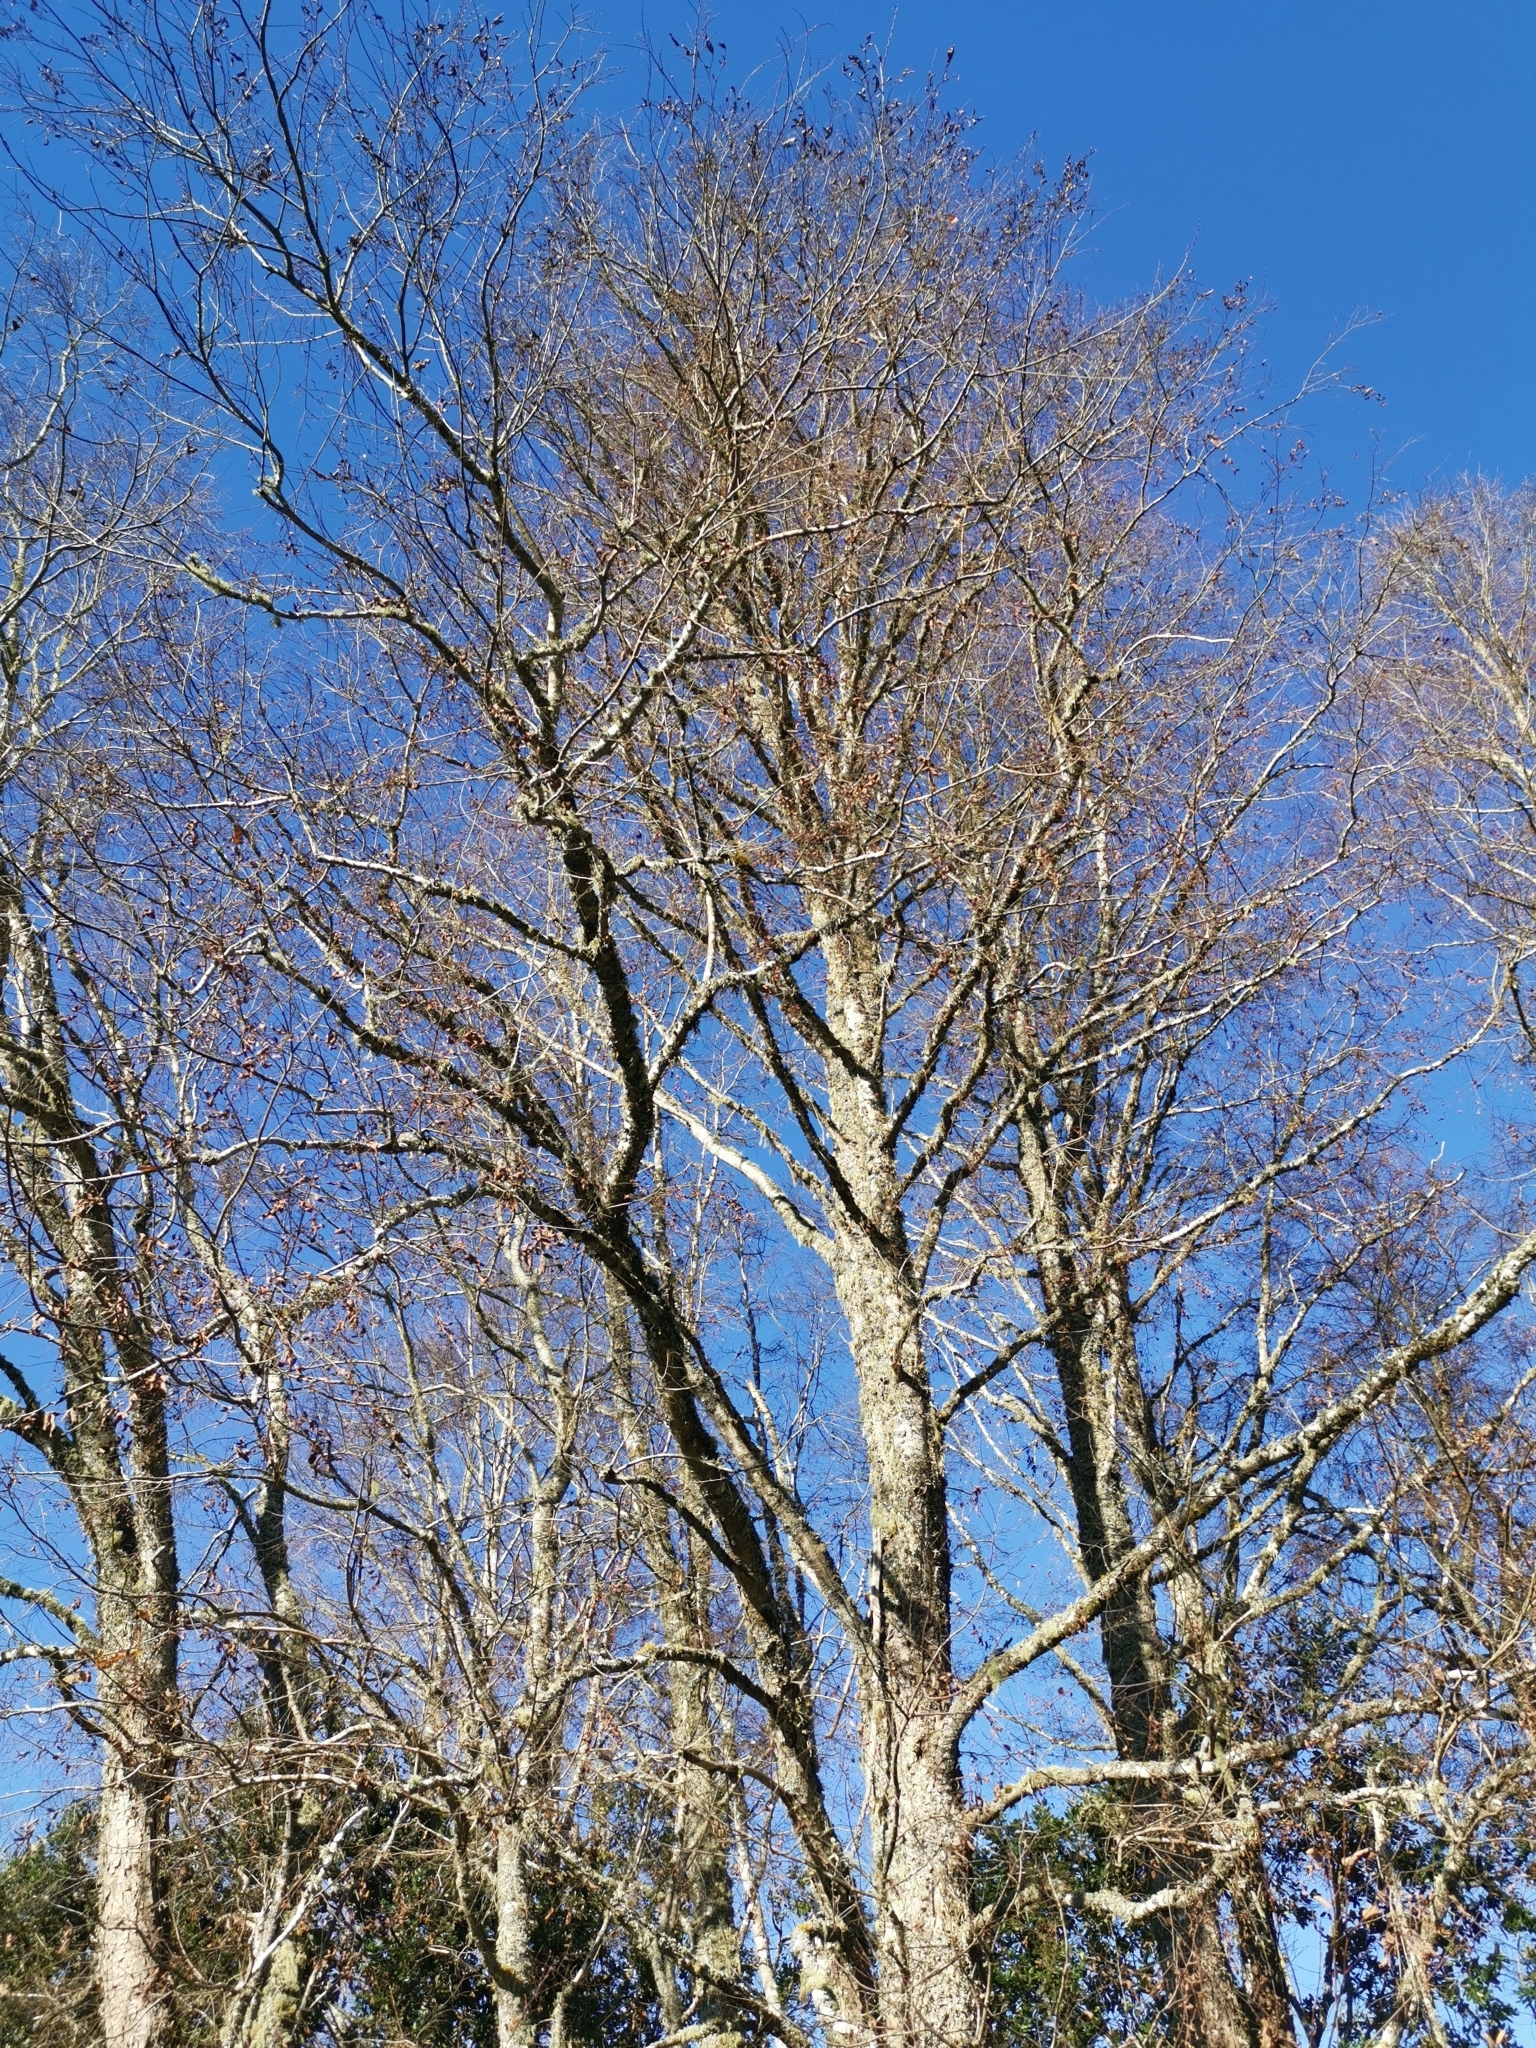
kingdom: Plantae
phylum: Tracheophyta
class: Magnoliopsida
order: Fagales
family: Nothofagaceae
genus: Nothofagus
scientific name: Nothofagus obliqua
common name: Roble beech
